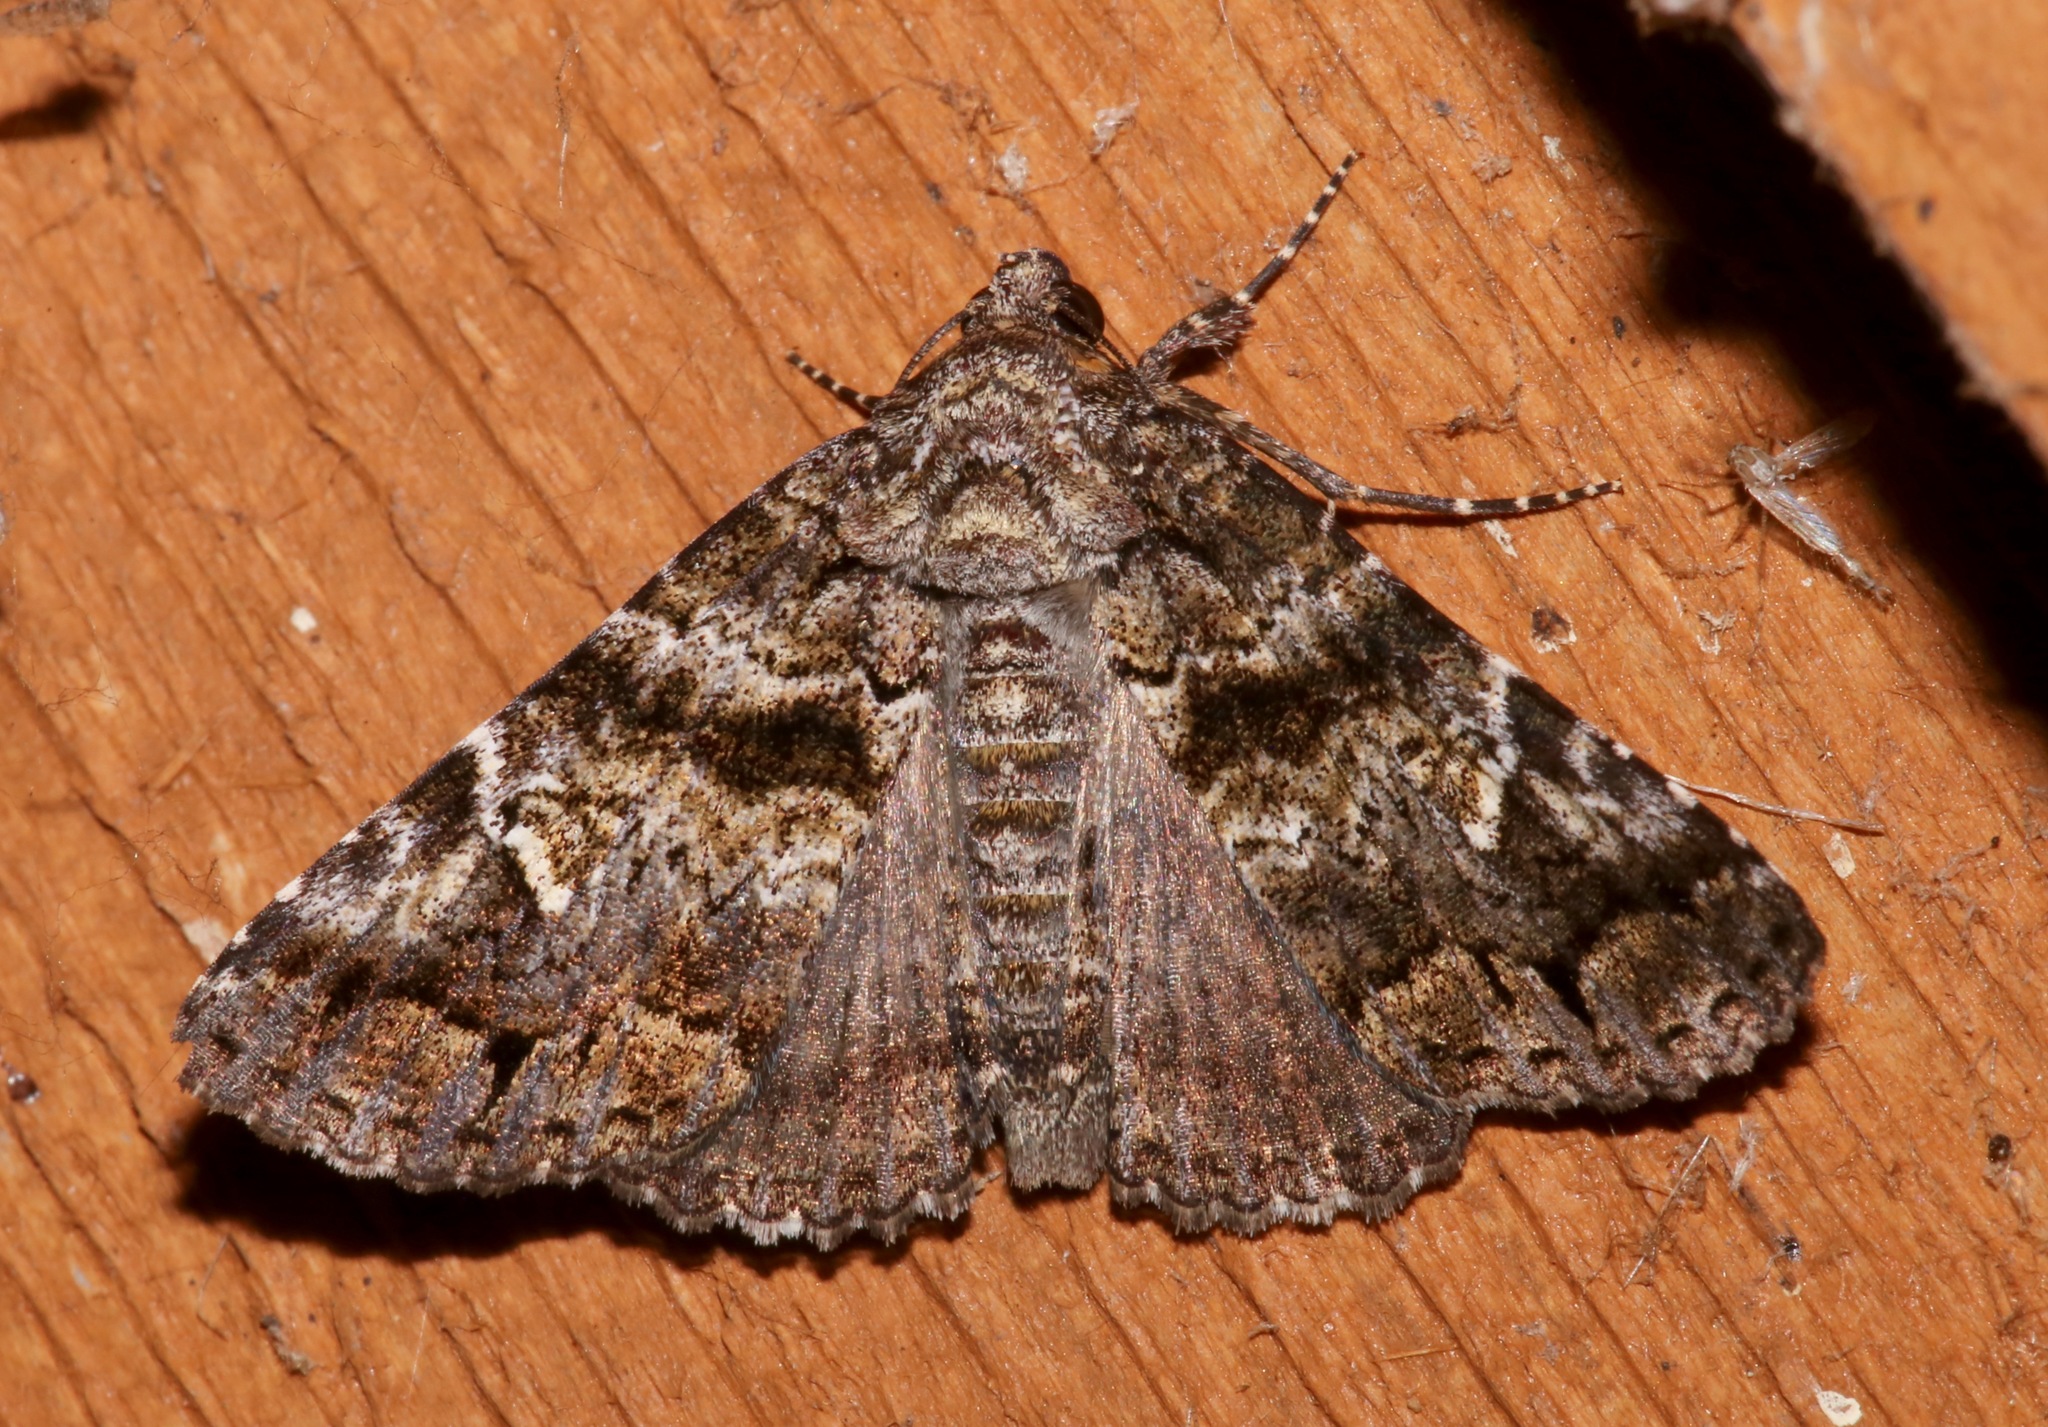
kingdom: Animalia
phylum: Arthropoda
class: Insecta
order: Lepidoptera
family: Erebidae
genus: Metria
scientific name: Metria amella
